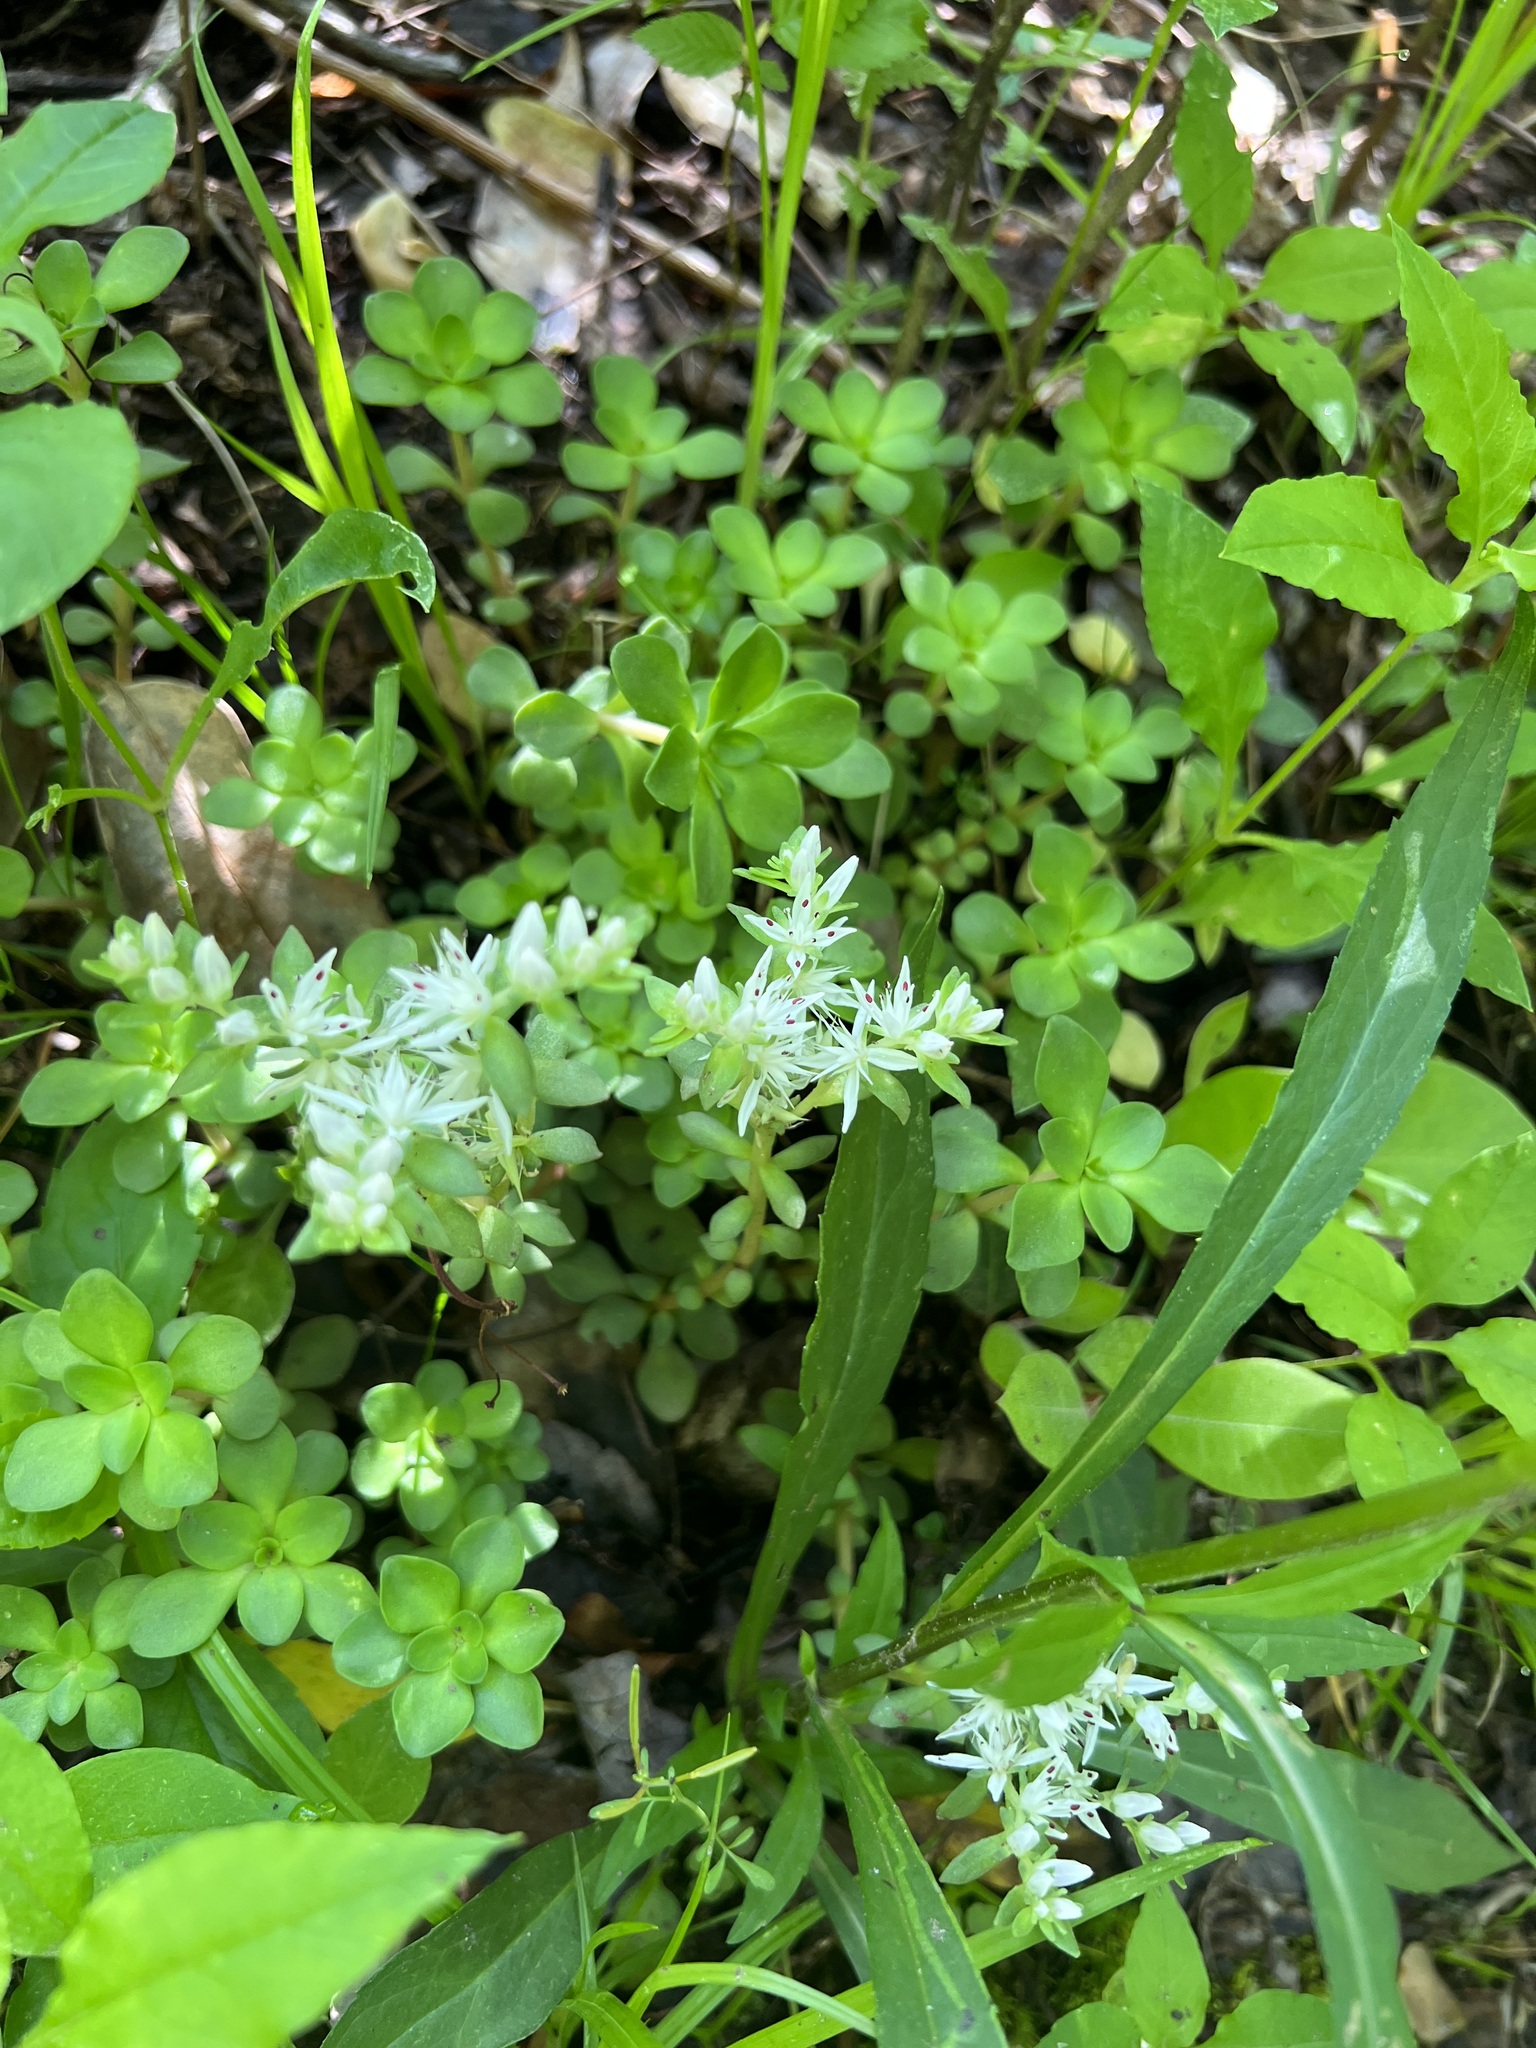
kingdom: Plantae
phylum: Tracheophyta
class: Magnoliopsida
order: Saxifragales
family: Crassulaceae
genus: Sedum
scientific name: Sedum ternatum
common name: Wild stonecrop
